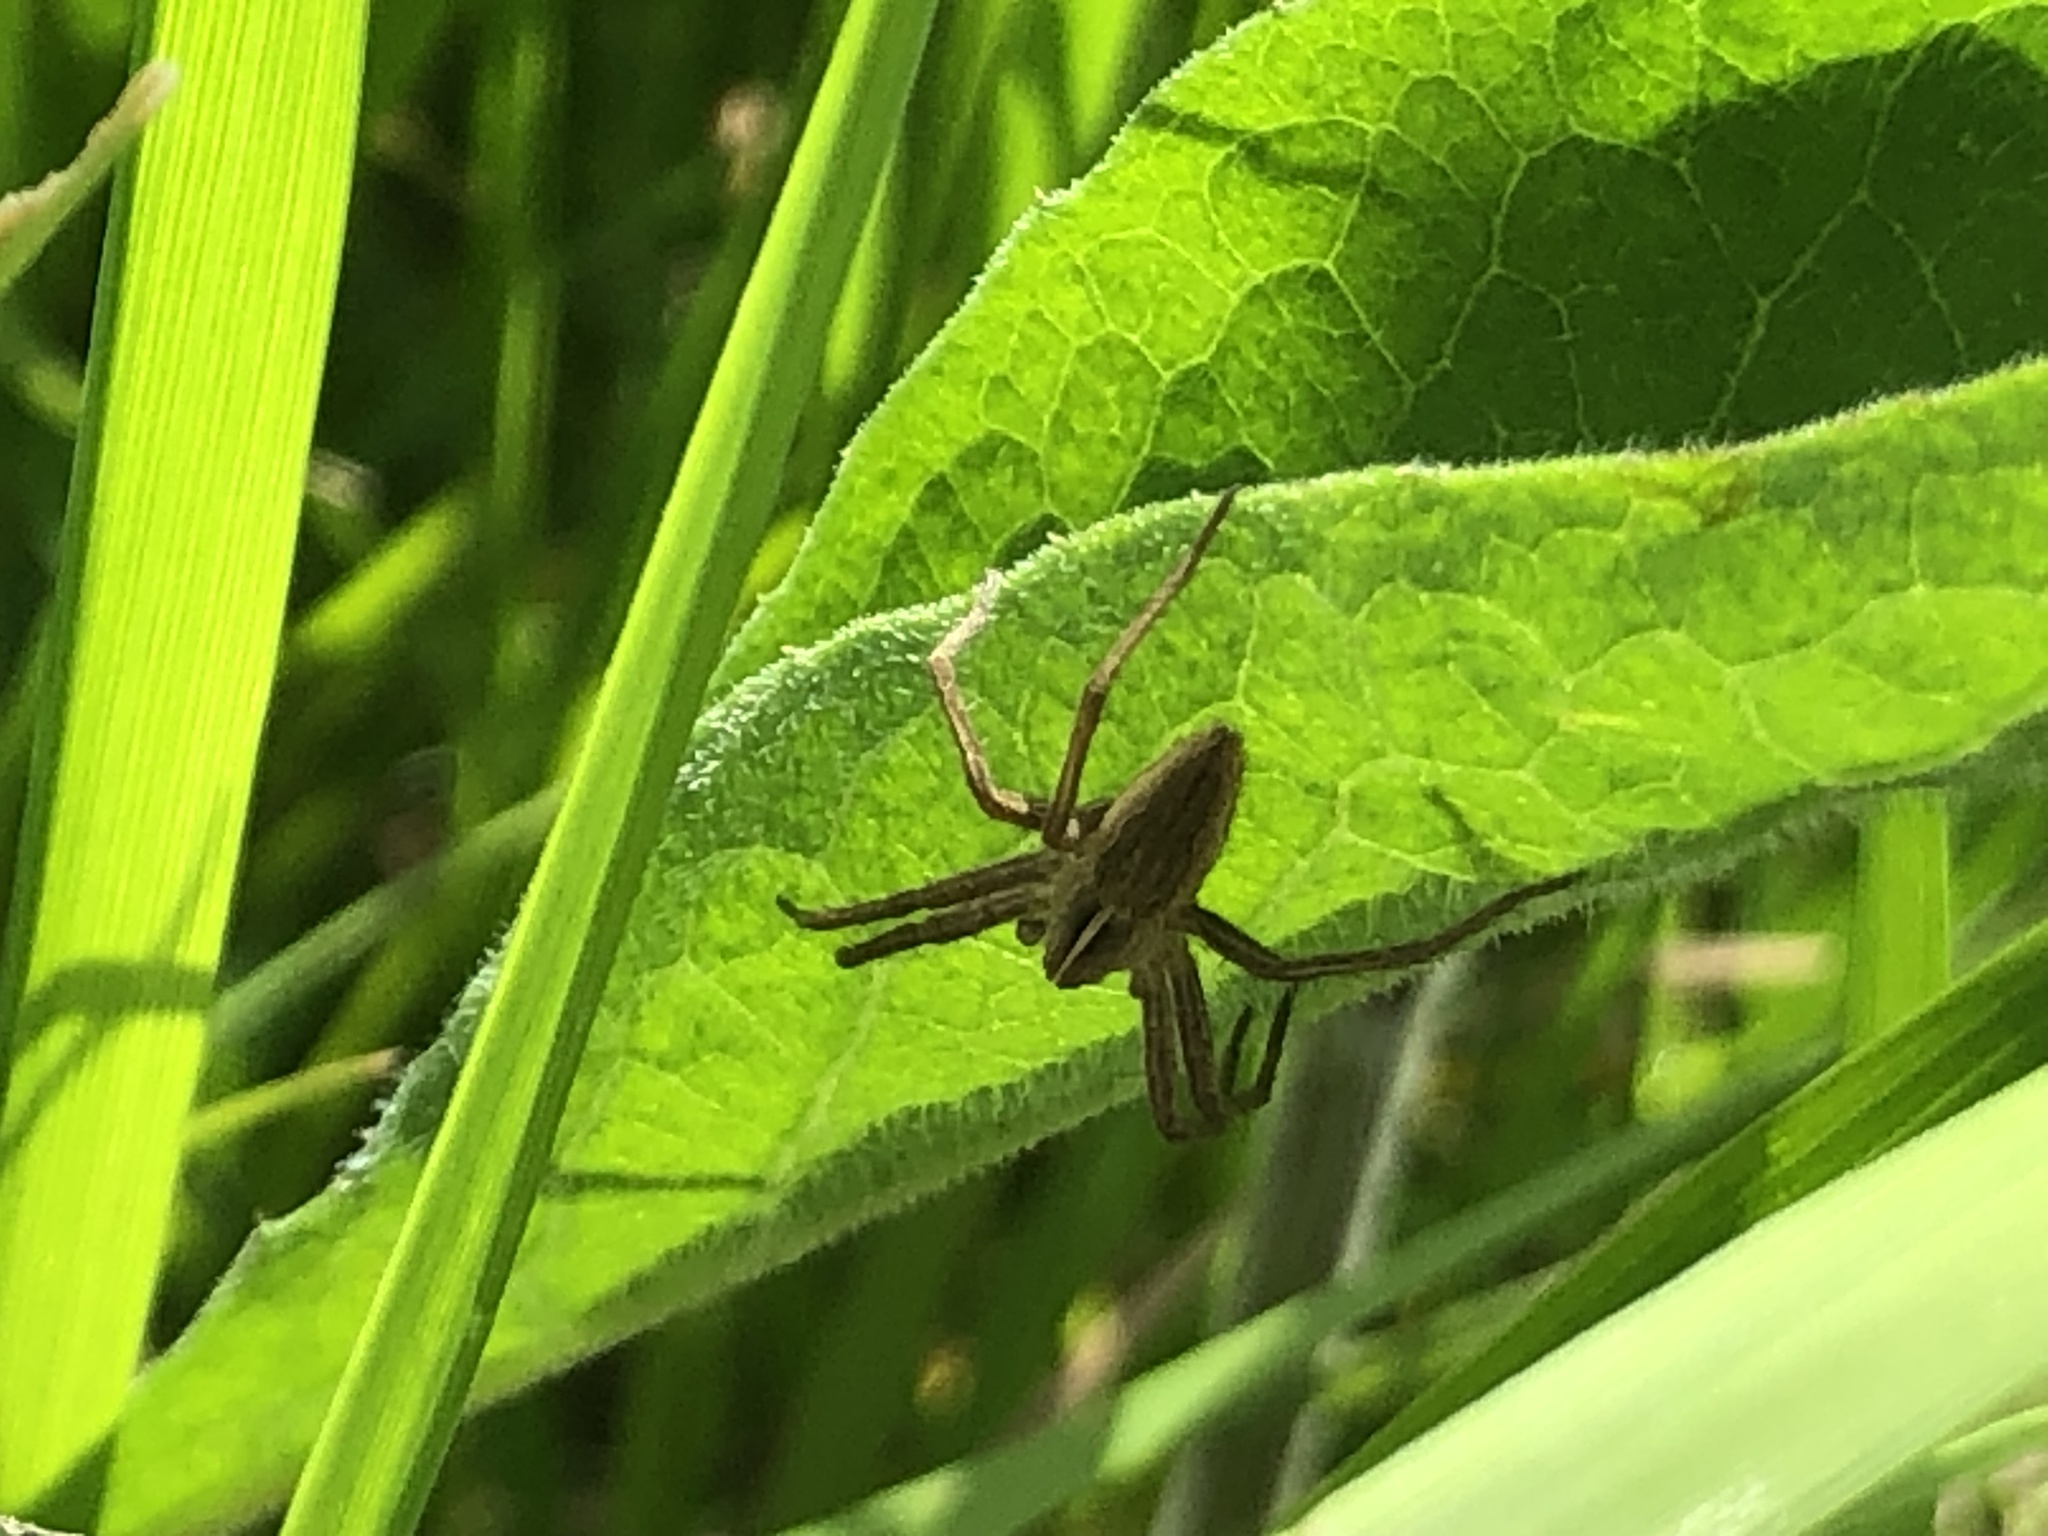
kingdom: Animalia
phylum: Arthropoda
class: Arachnida
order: Araneae
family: Pisauridae
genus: Pisaura
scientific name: Pisaura mirabilis
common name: Tent spider
